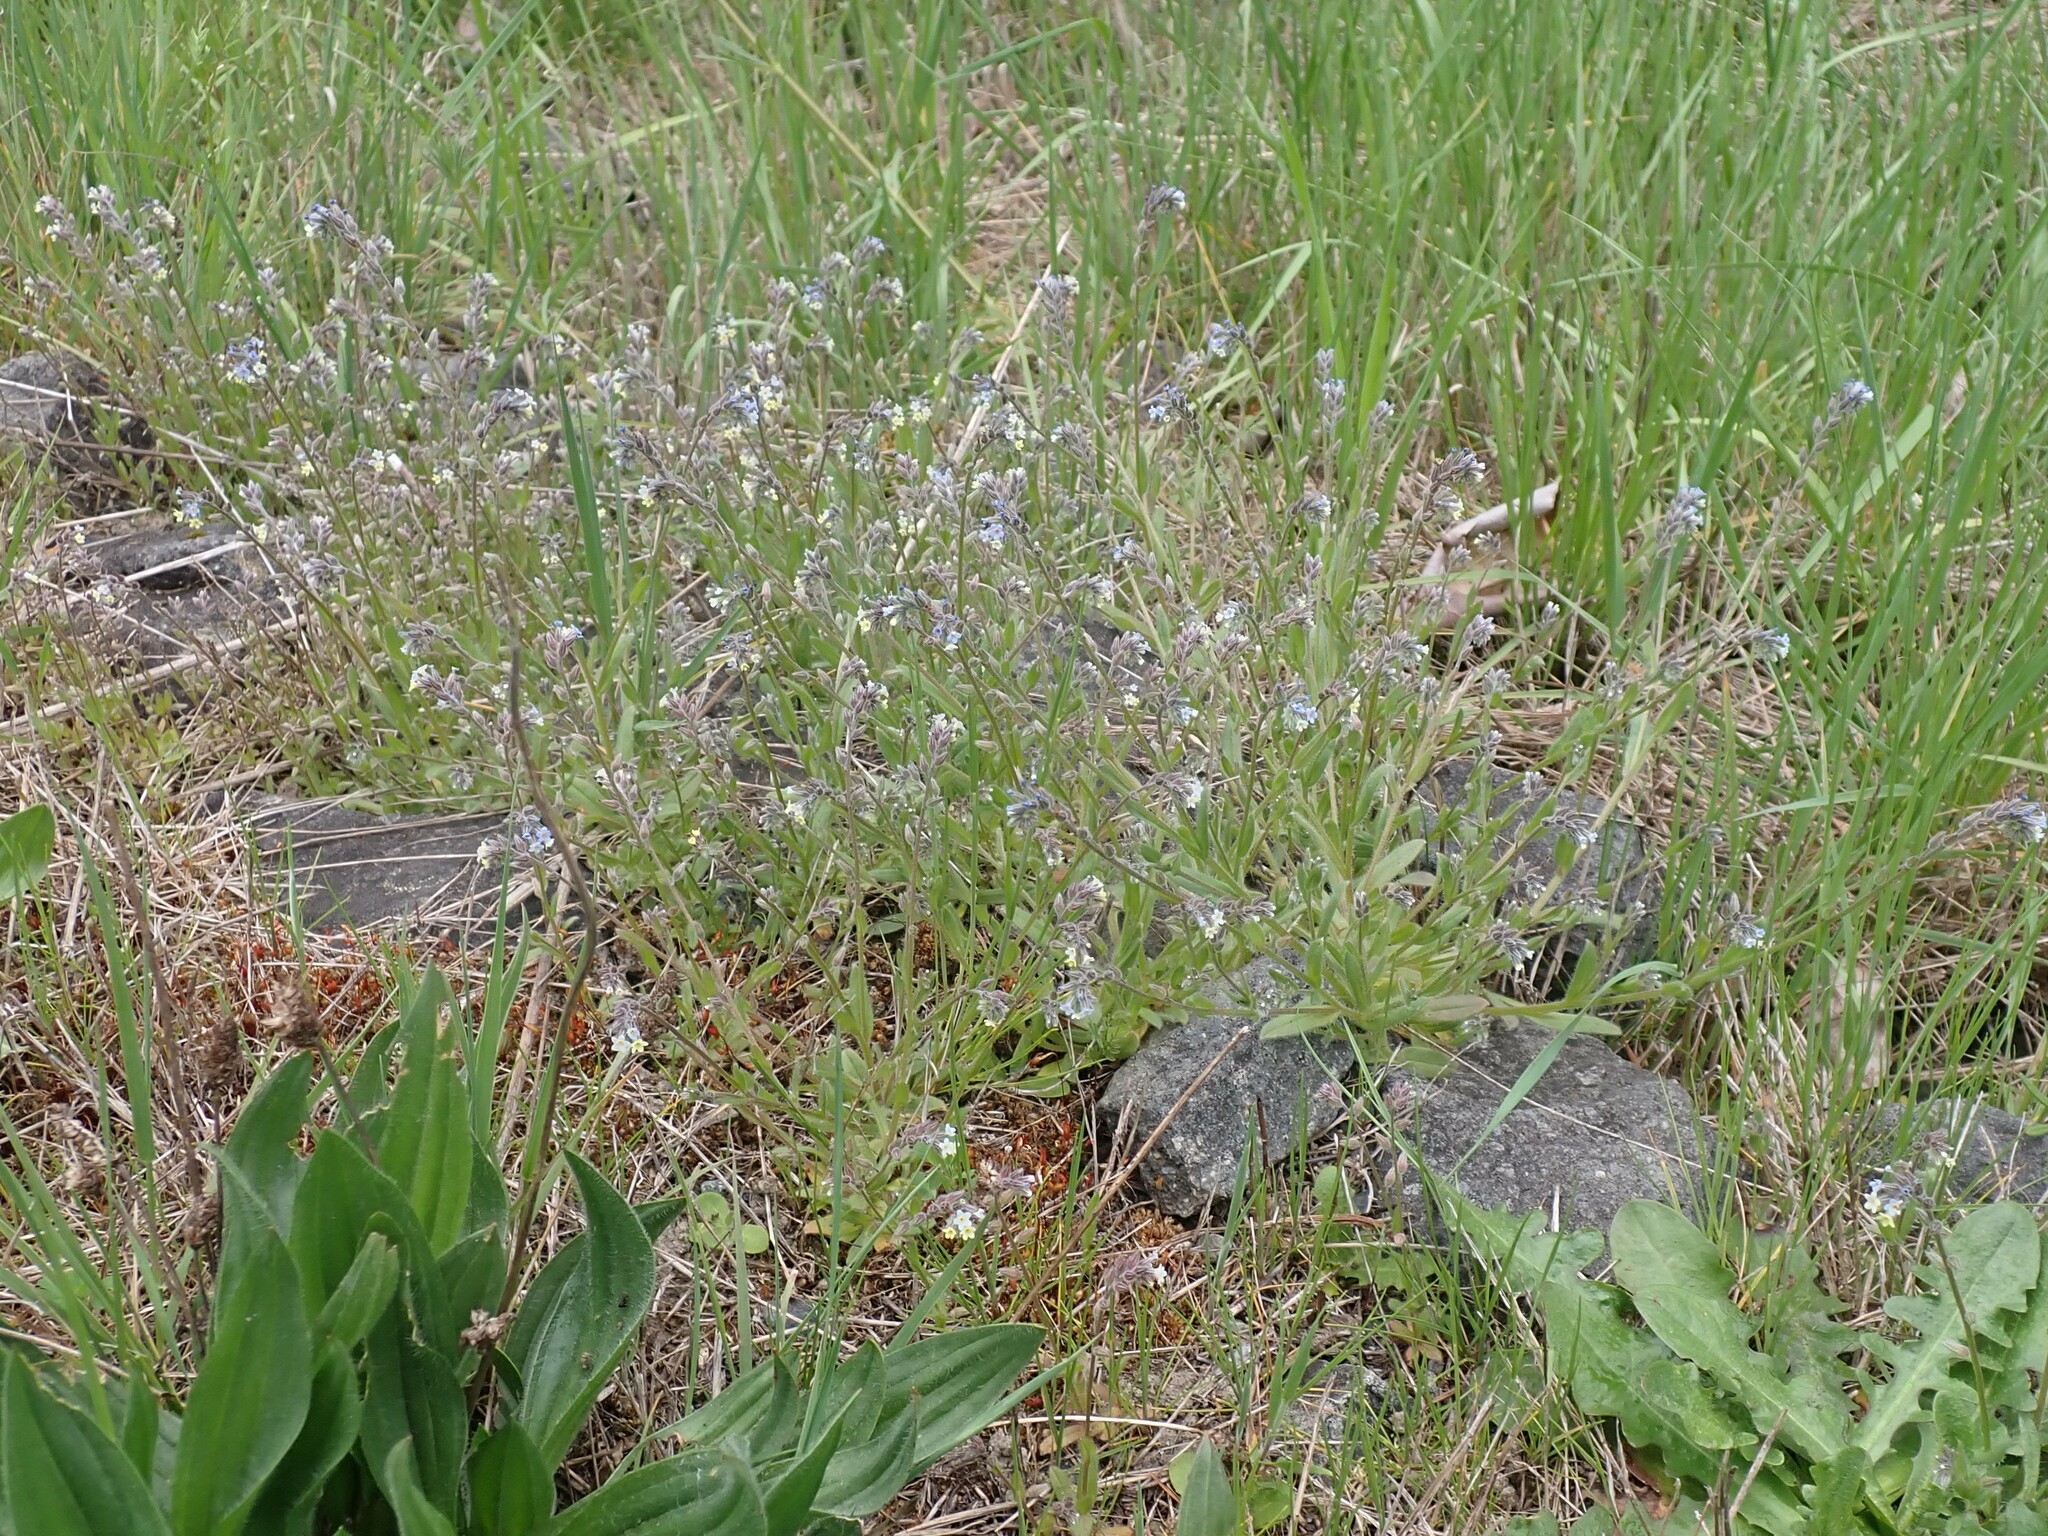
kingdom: Plantae
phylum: Tracheophyta
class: Magnoliopsida
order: Boraginales
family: Boraginaceae
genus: Myosotis
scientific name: Myosotis discolor
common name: Changing forget-me-not
